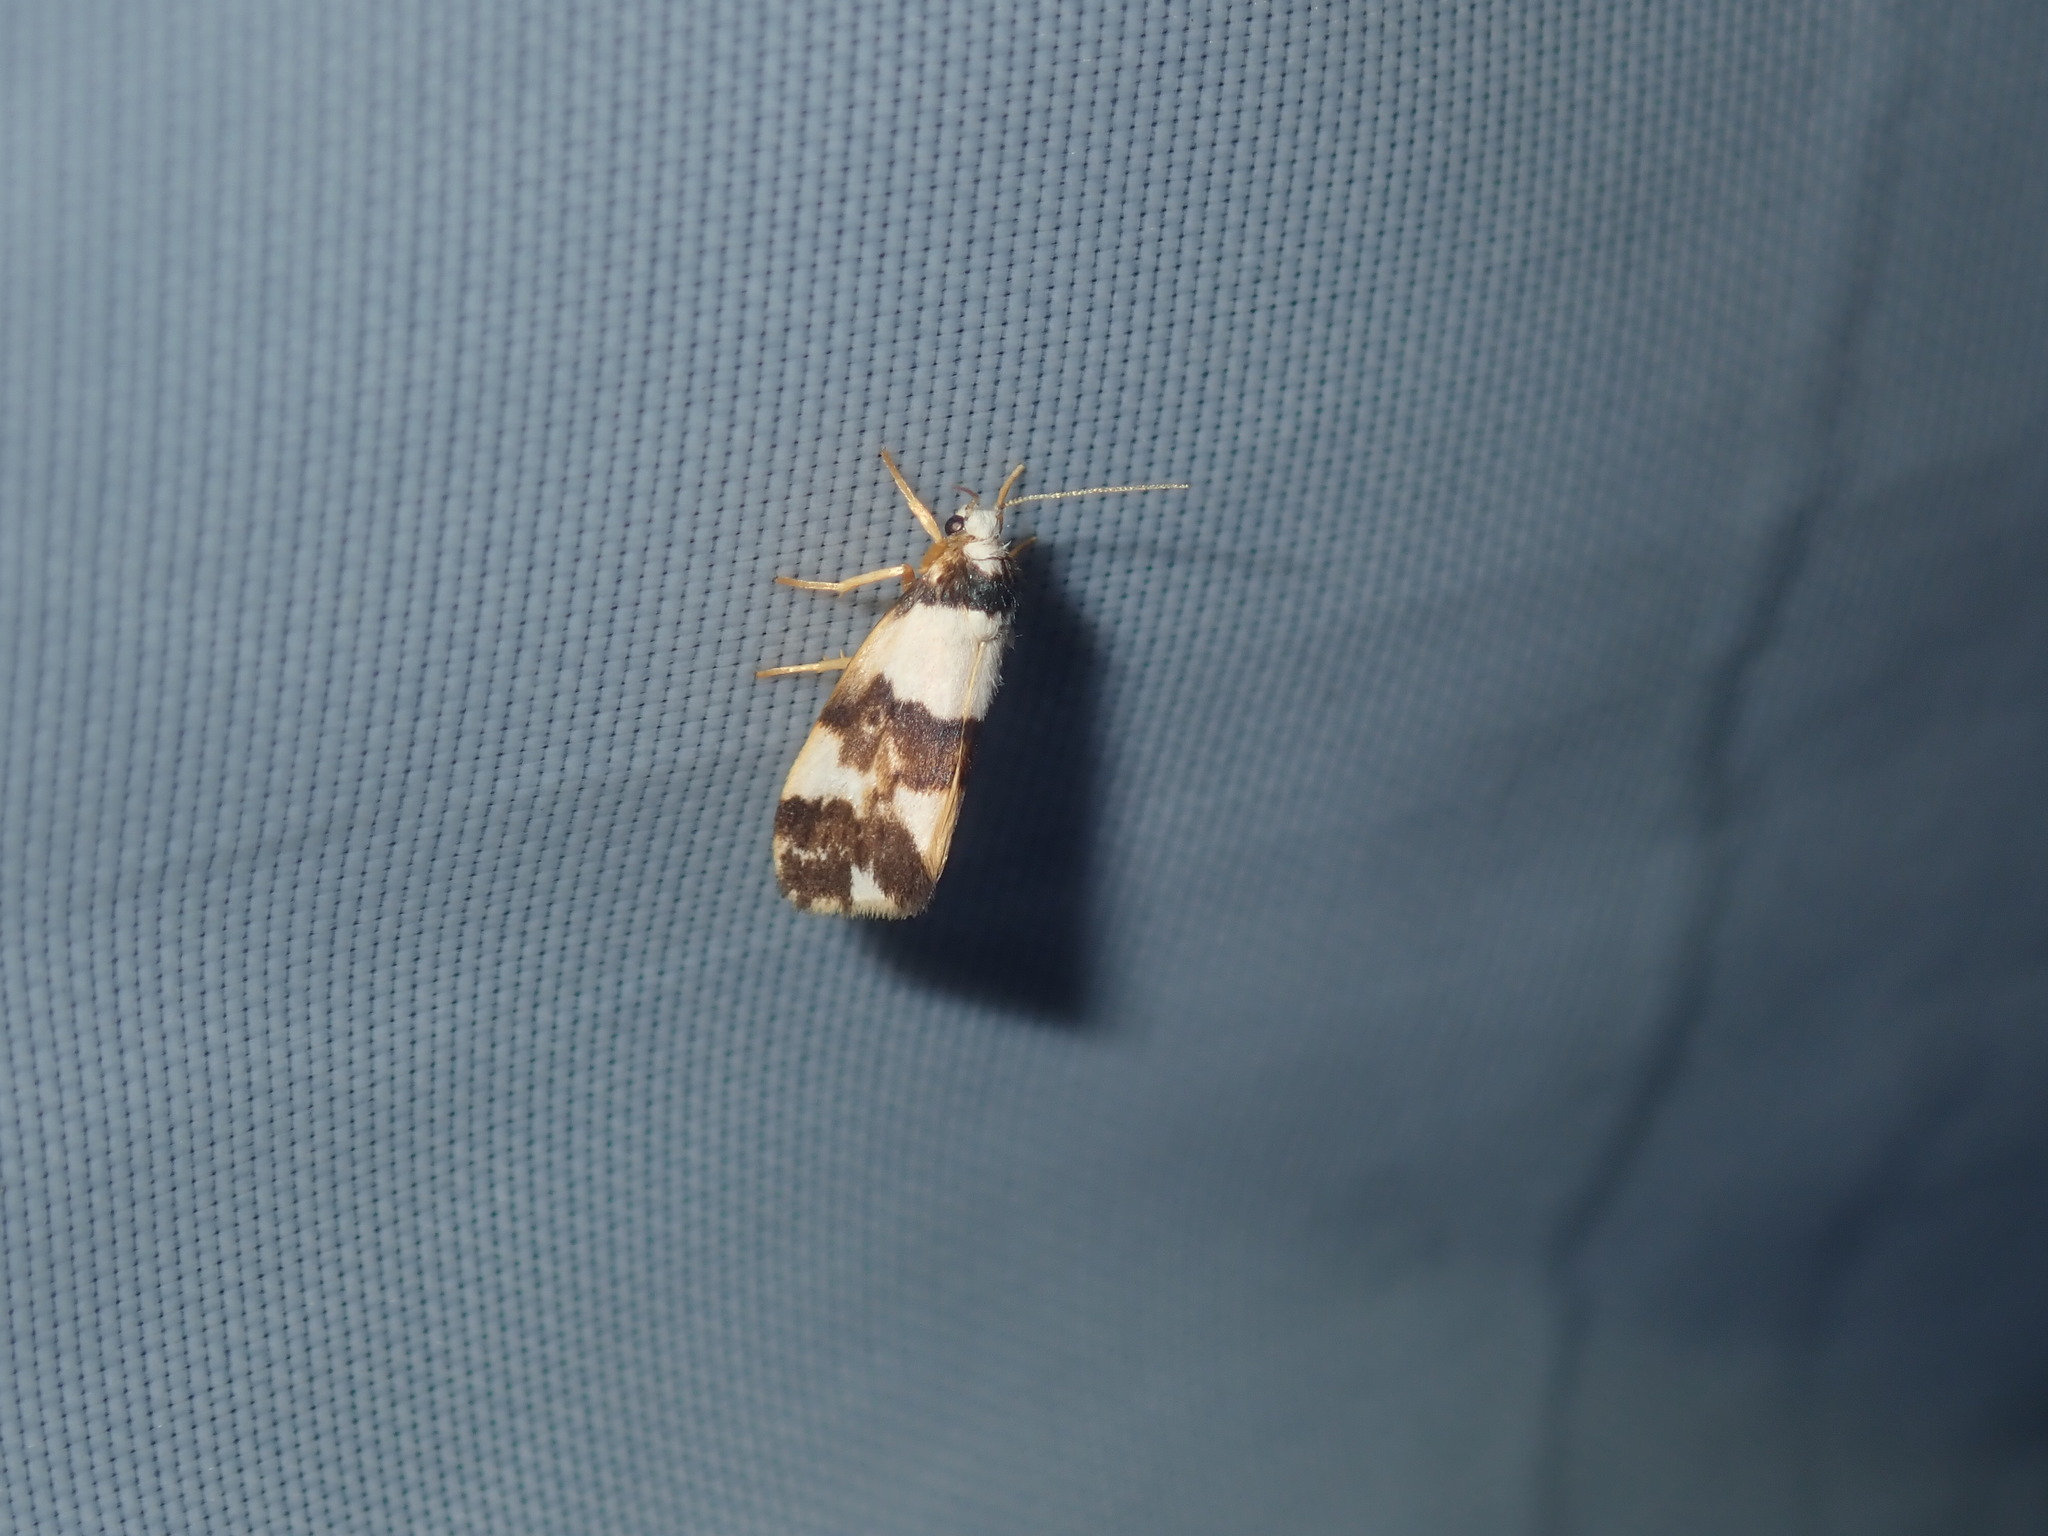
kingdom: Animalia
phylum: Arthropoda
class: Insecta
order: Lepidoptera
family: Erebidae
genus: Philenora
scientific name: Philenora aspectalella
